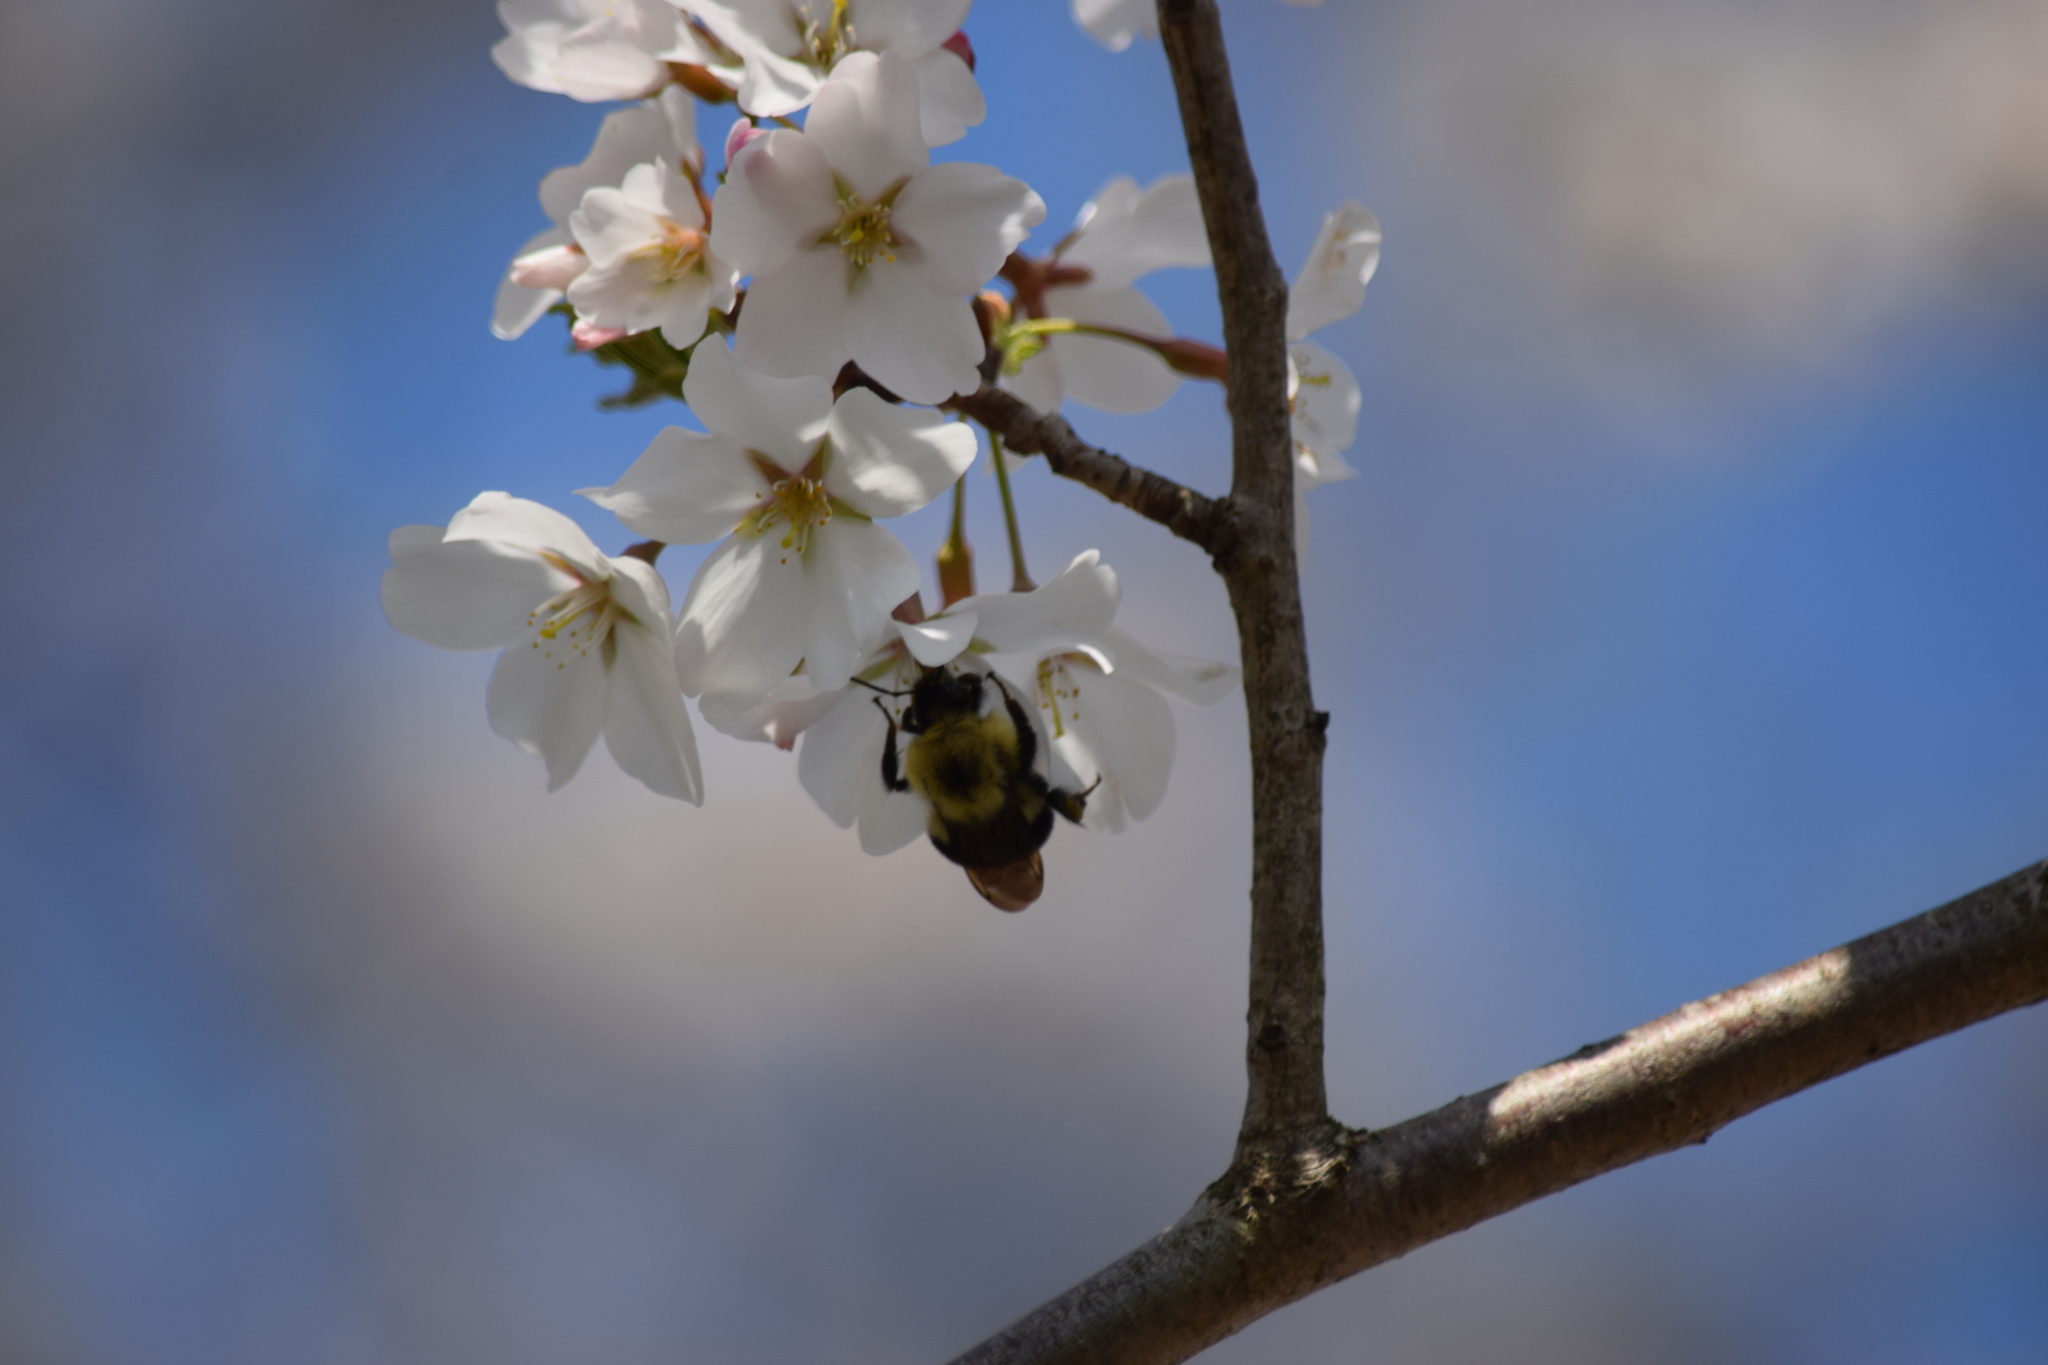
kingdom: Animalia
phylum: Arthropoda
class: Insecta
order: Hymenoptera
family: Apidae
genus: Bombus
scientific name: Bombus bimaculatus
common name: Two-spotted bumble bee
